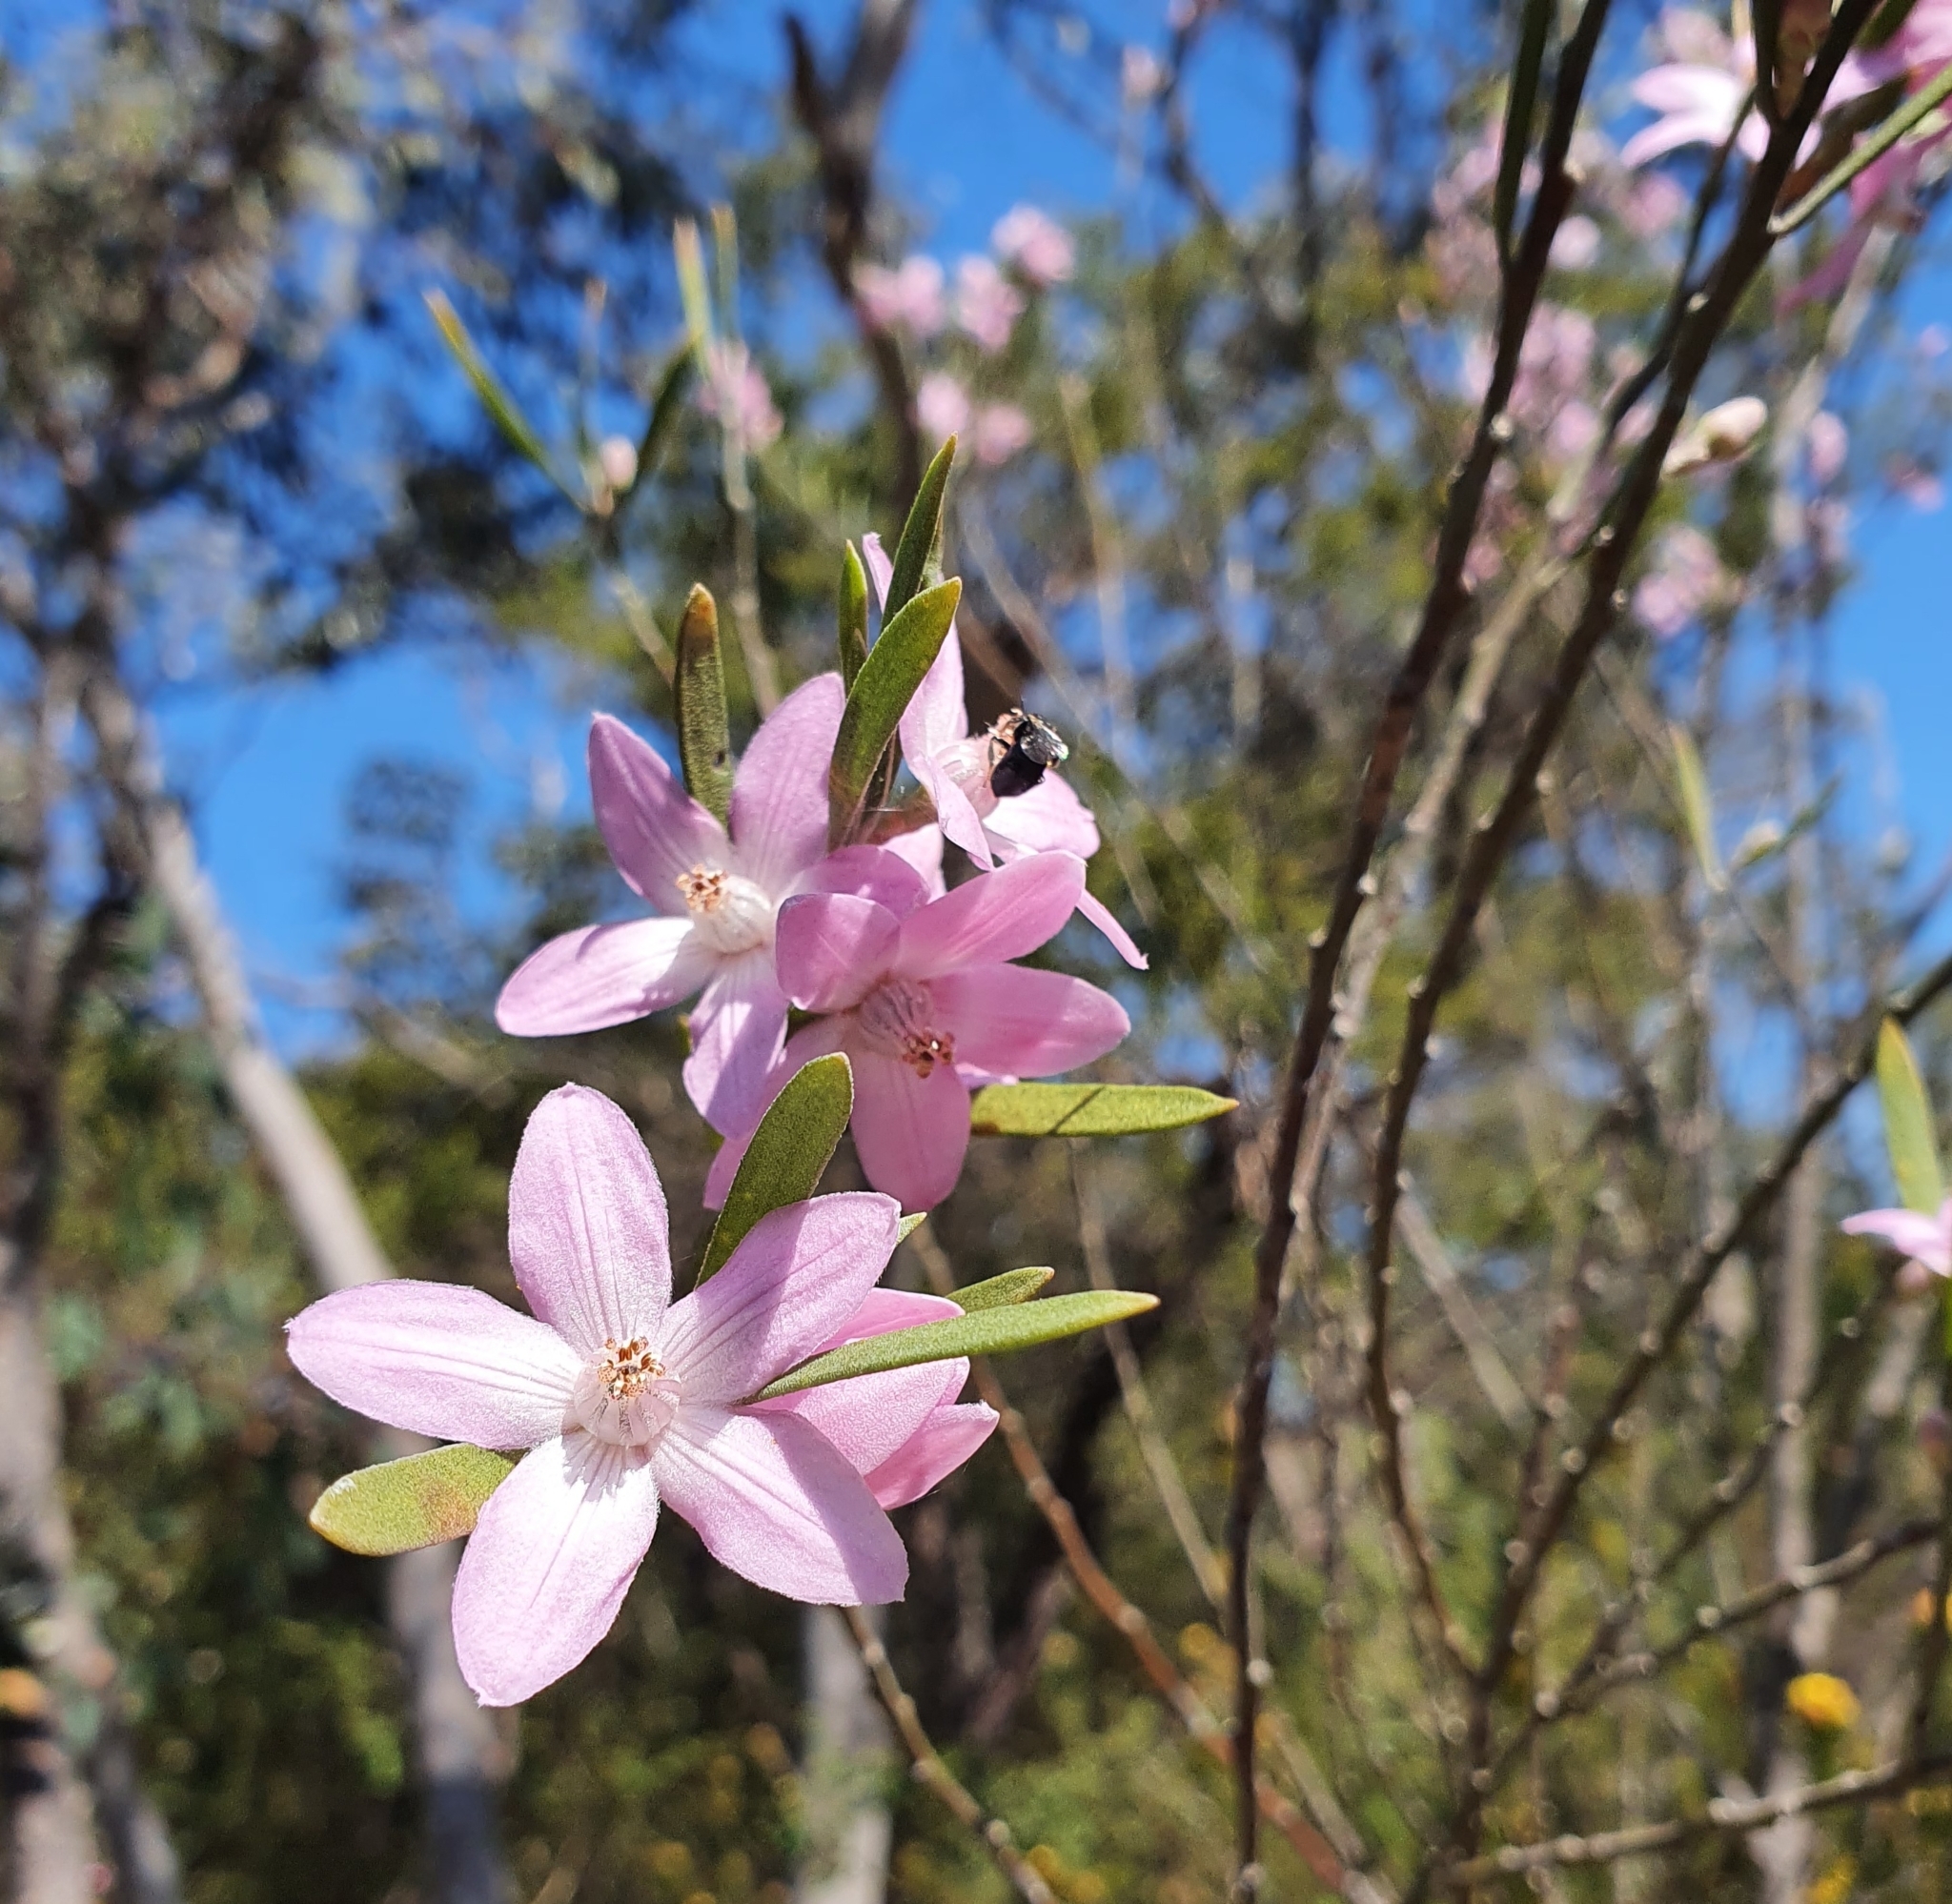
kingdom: Plantae
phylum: Tracheophyta
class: Magnoliopsida
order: Sapindales
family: Rutaceae
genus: Eriostemon
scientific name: Eriostemon australasius
